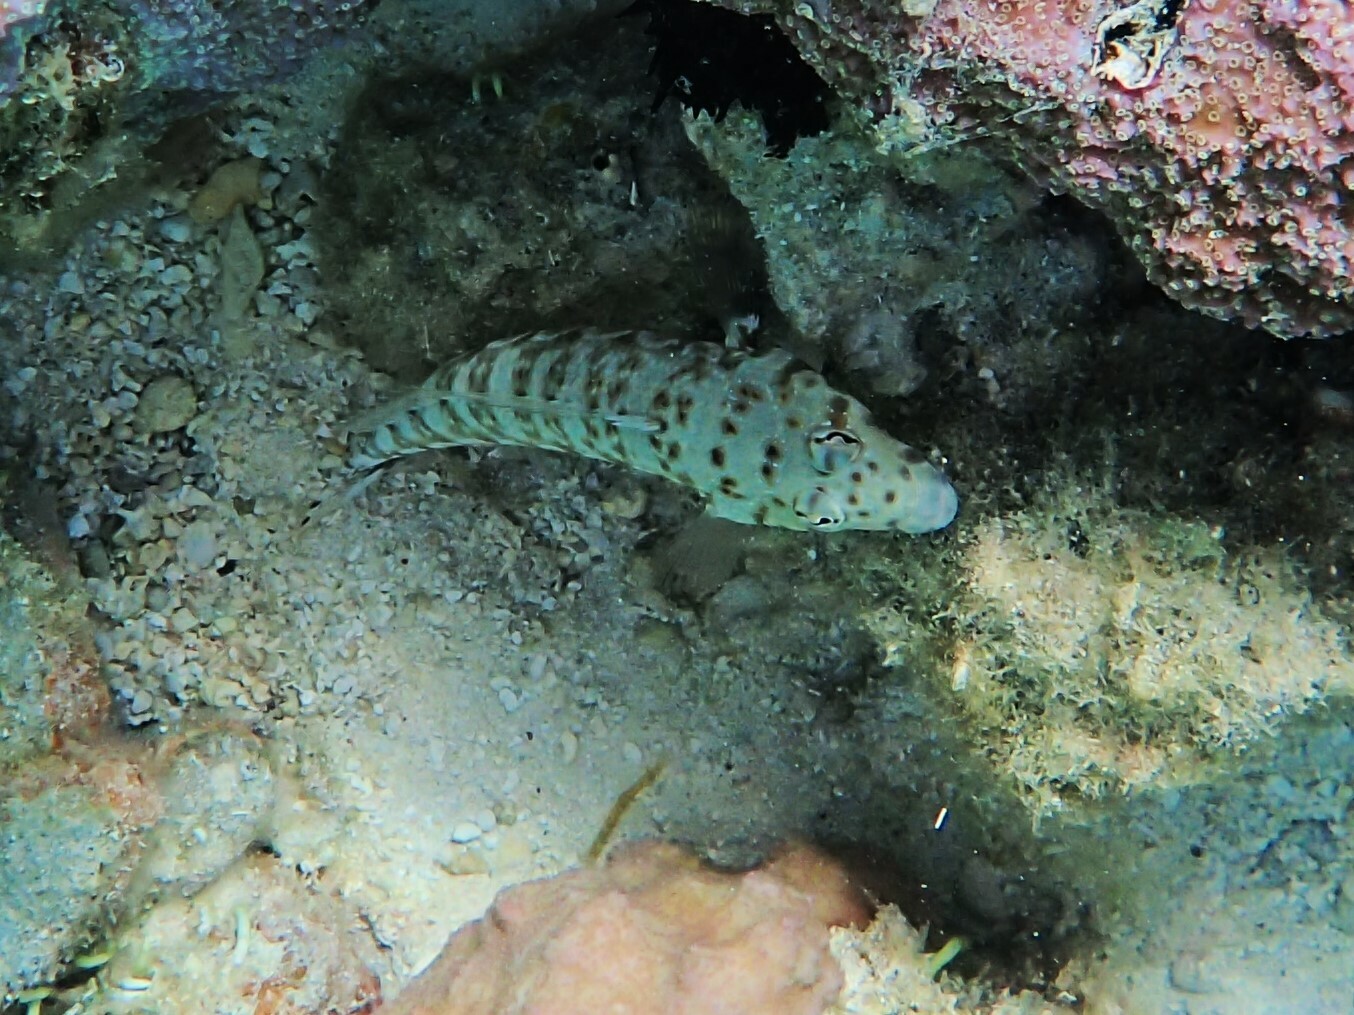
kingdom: Animalia
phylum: Chordata
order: Perciformes
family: Pinguipedidae
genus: Parapercis
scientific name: Parapercis millepunctata
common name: Black-dotted sandperch
